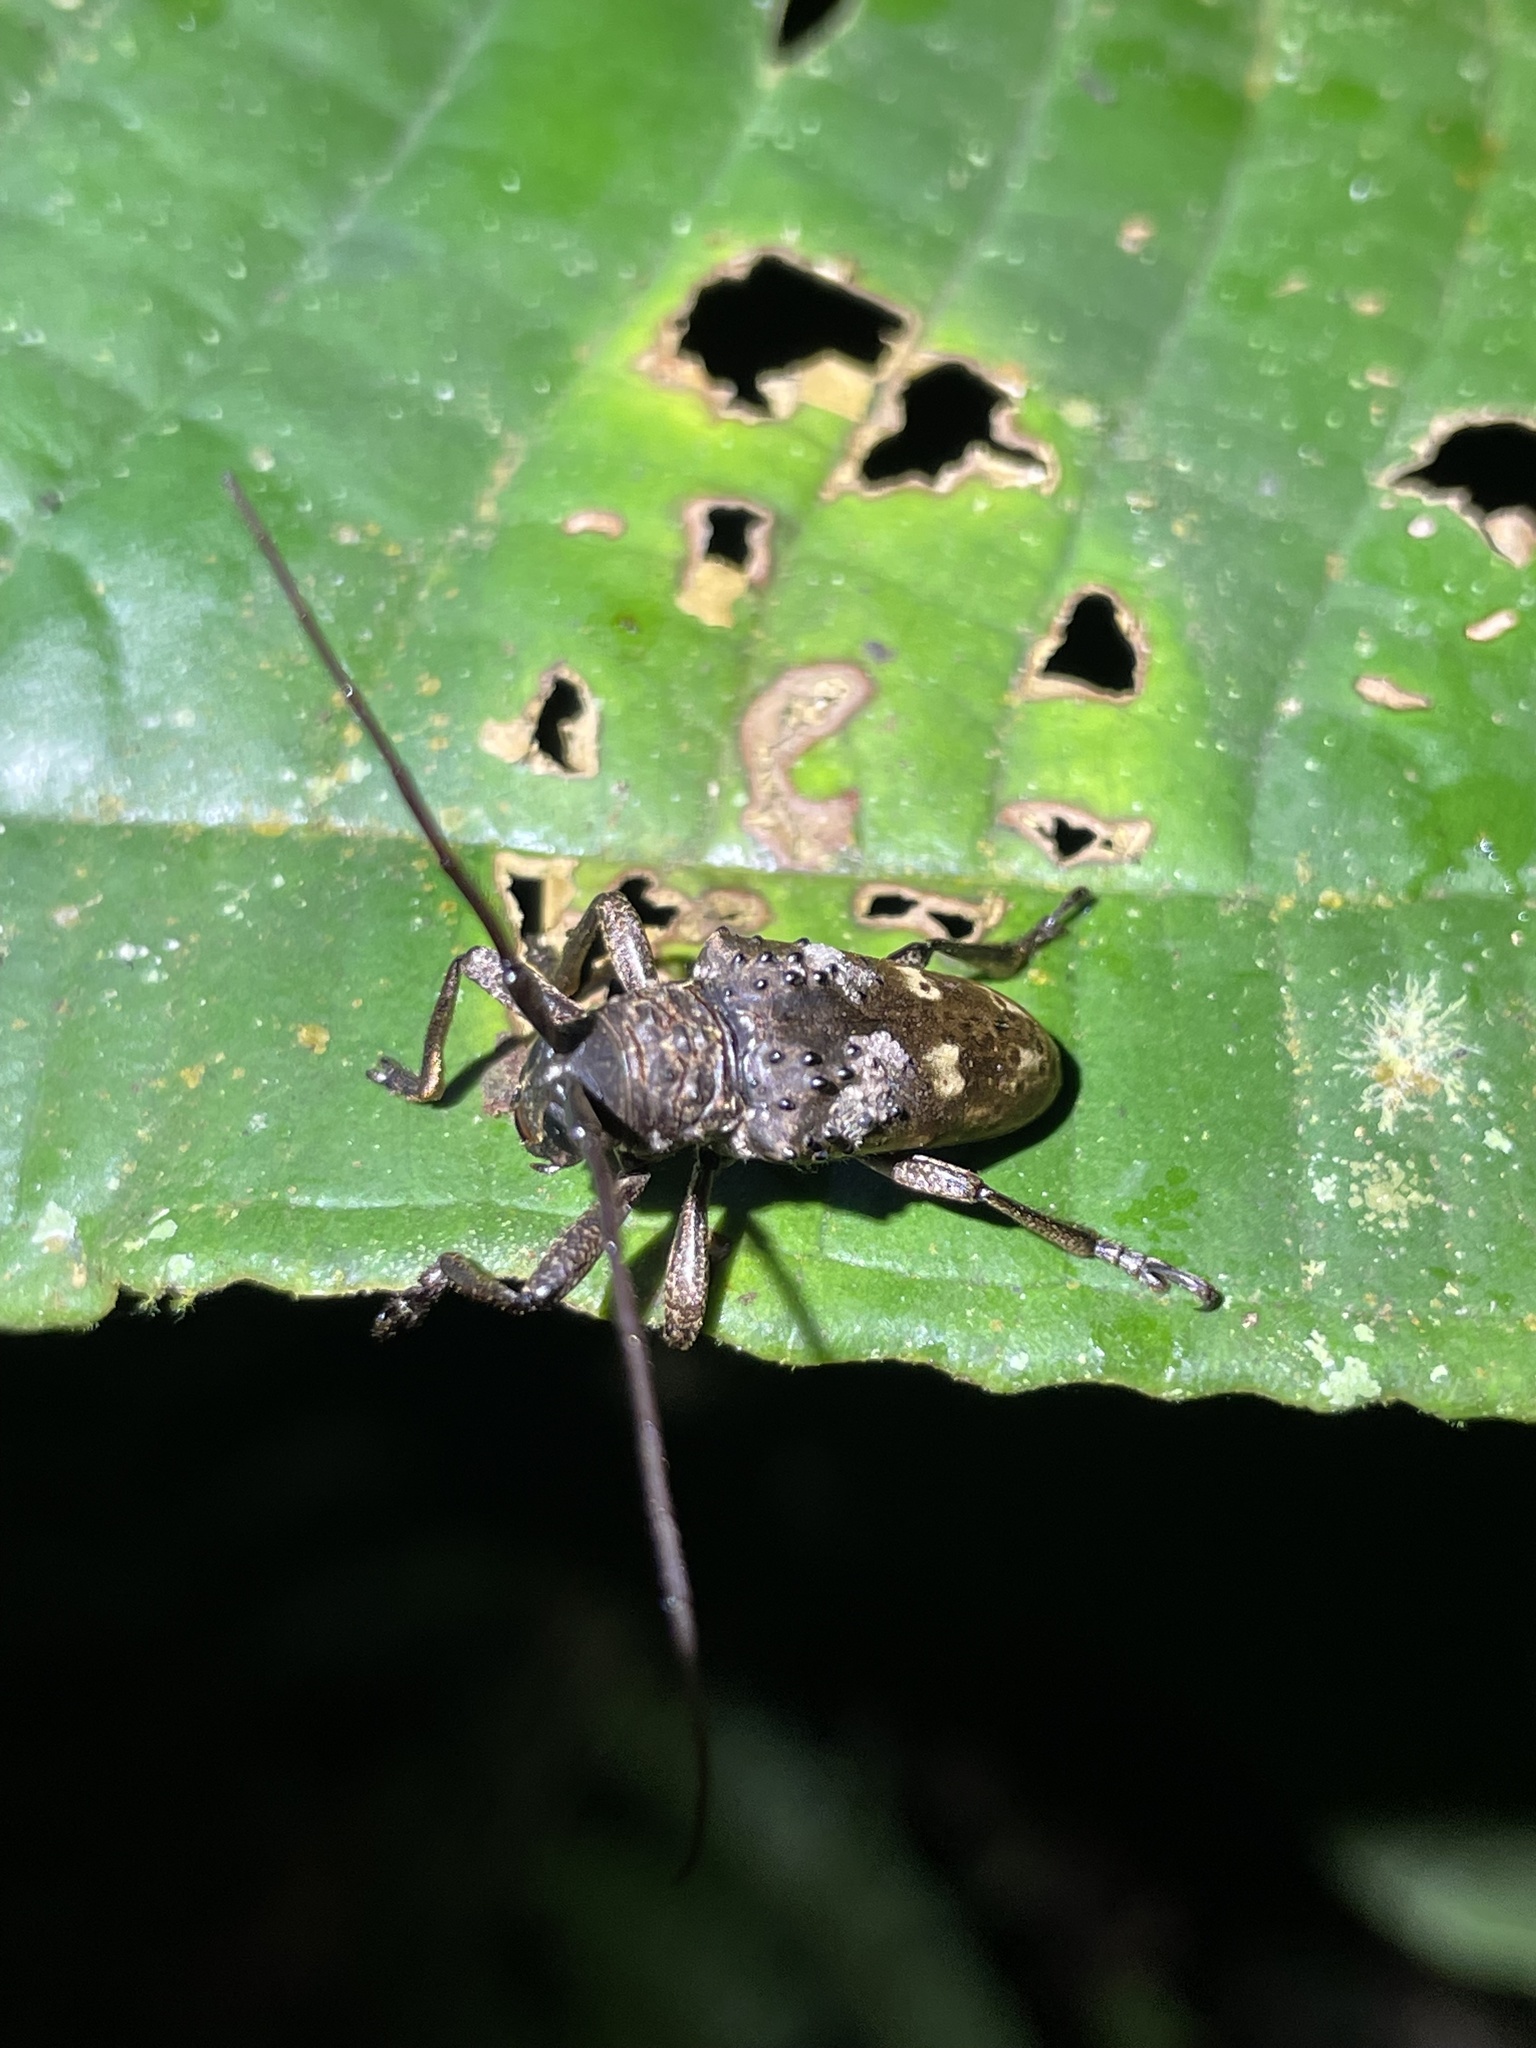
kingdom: Animalia
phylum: Arthropoda
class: Insecta
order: Coleoptera
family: Cerambycidae
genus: Jamesia
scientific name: Jamesia globifera
